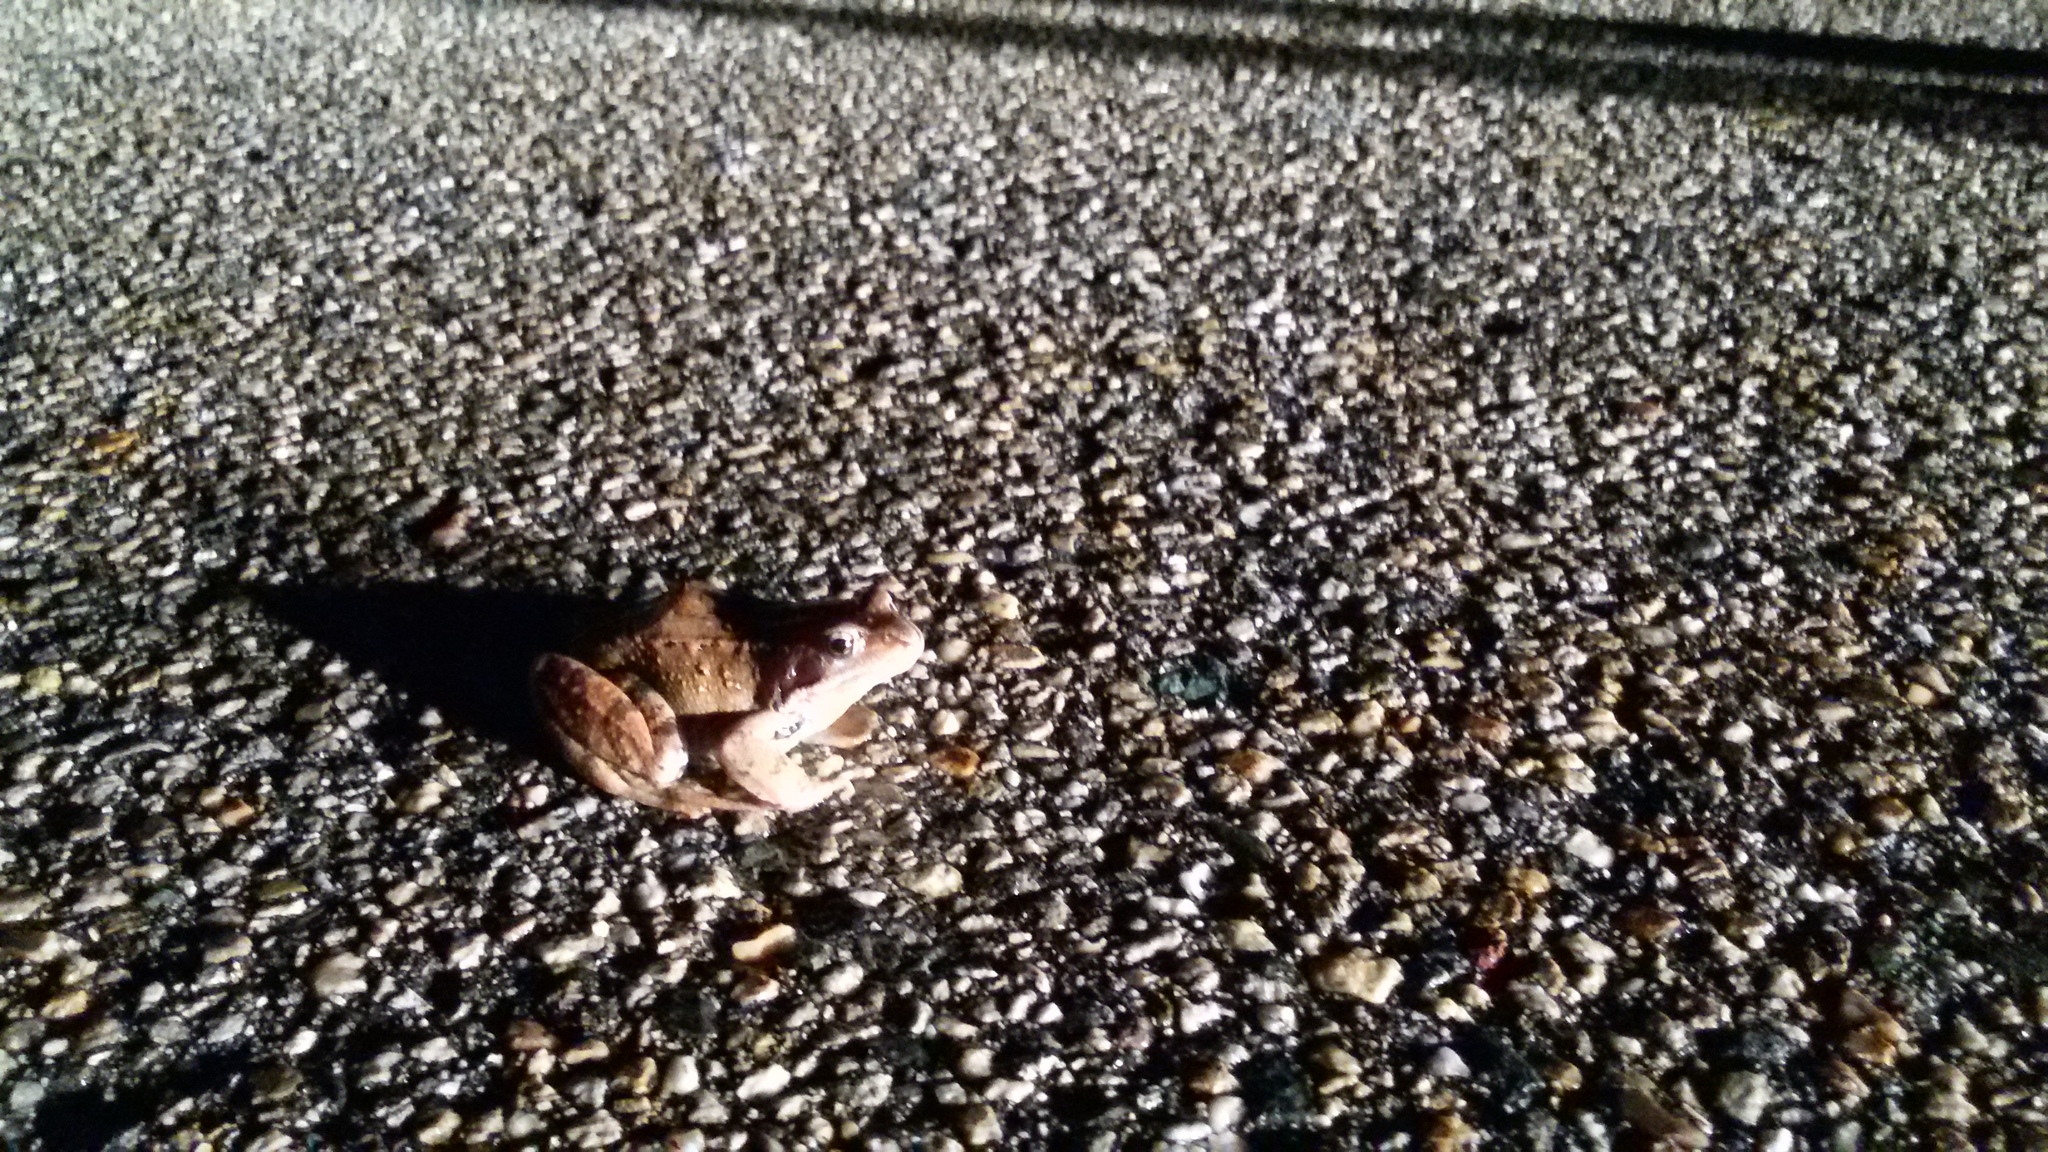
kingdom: Animalia
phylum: Chordata
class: Amphibia
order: Anura
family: Ranidae
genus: Rana
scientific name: Rana temporaria
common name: Common frog
